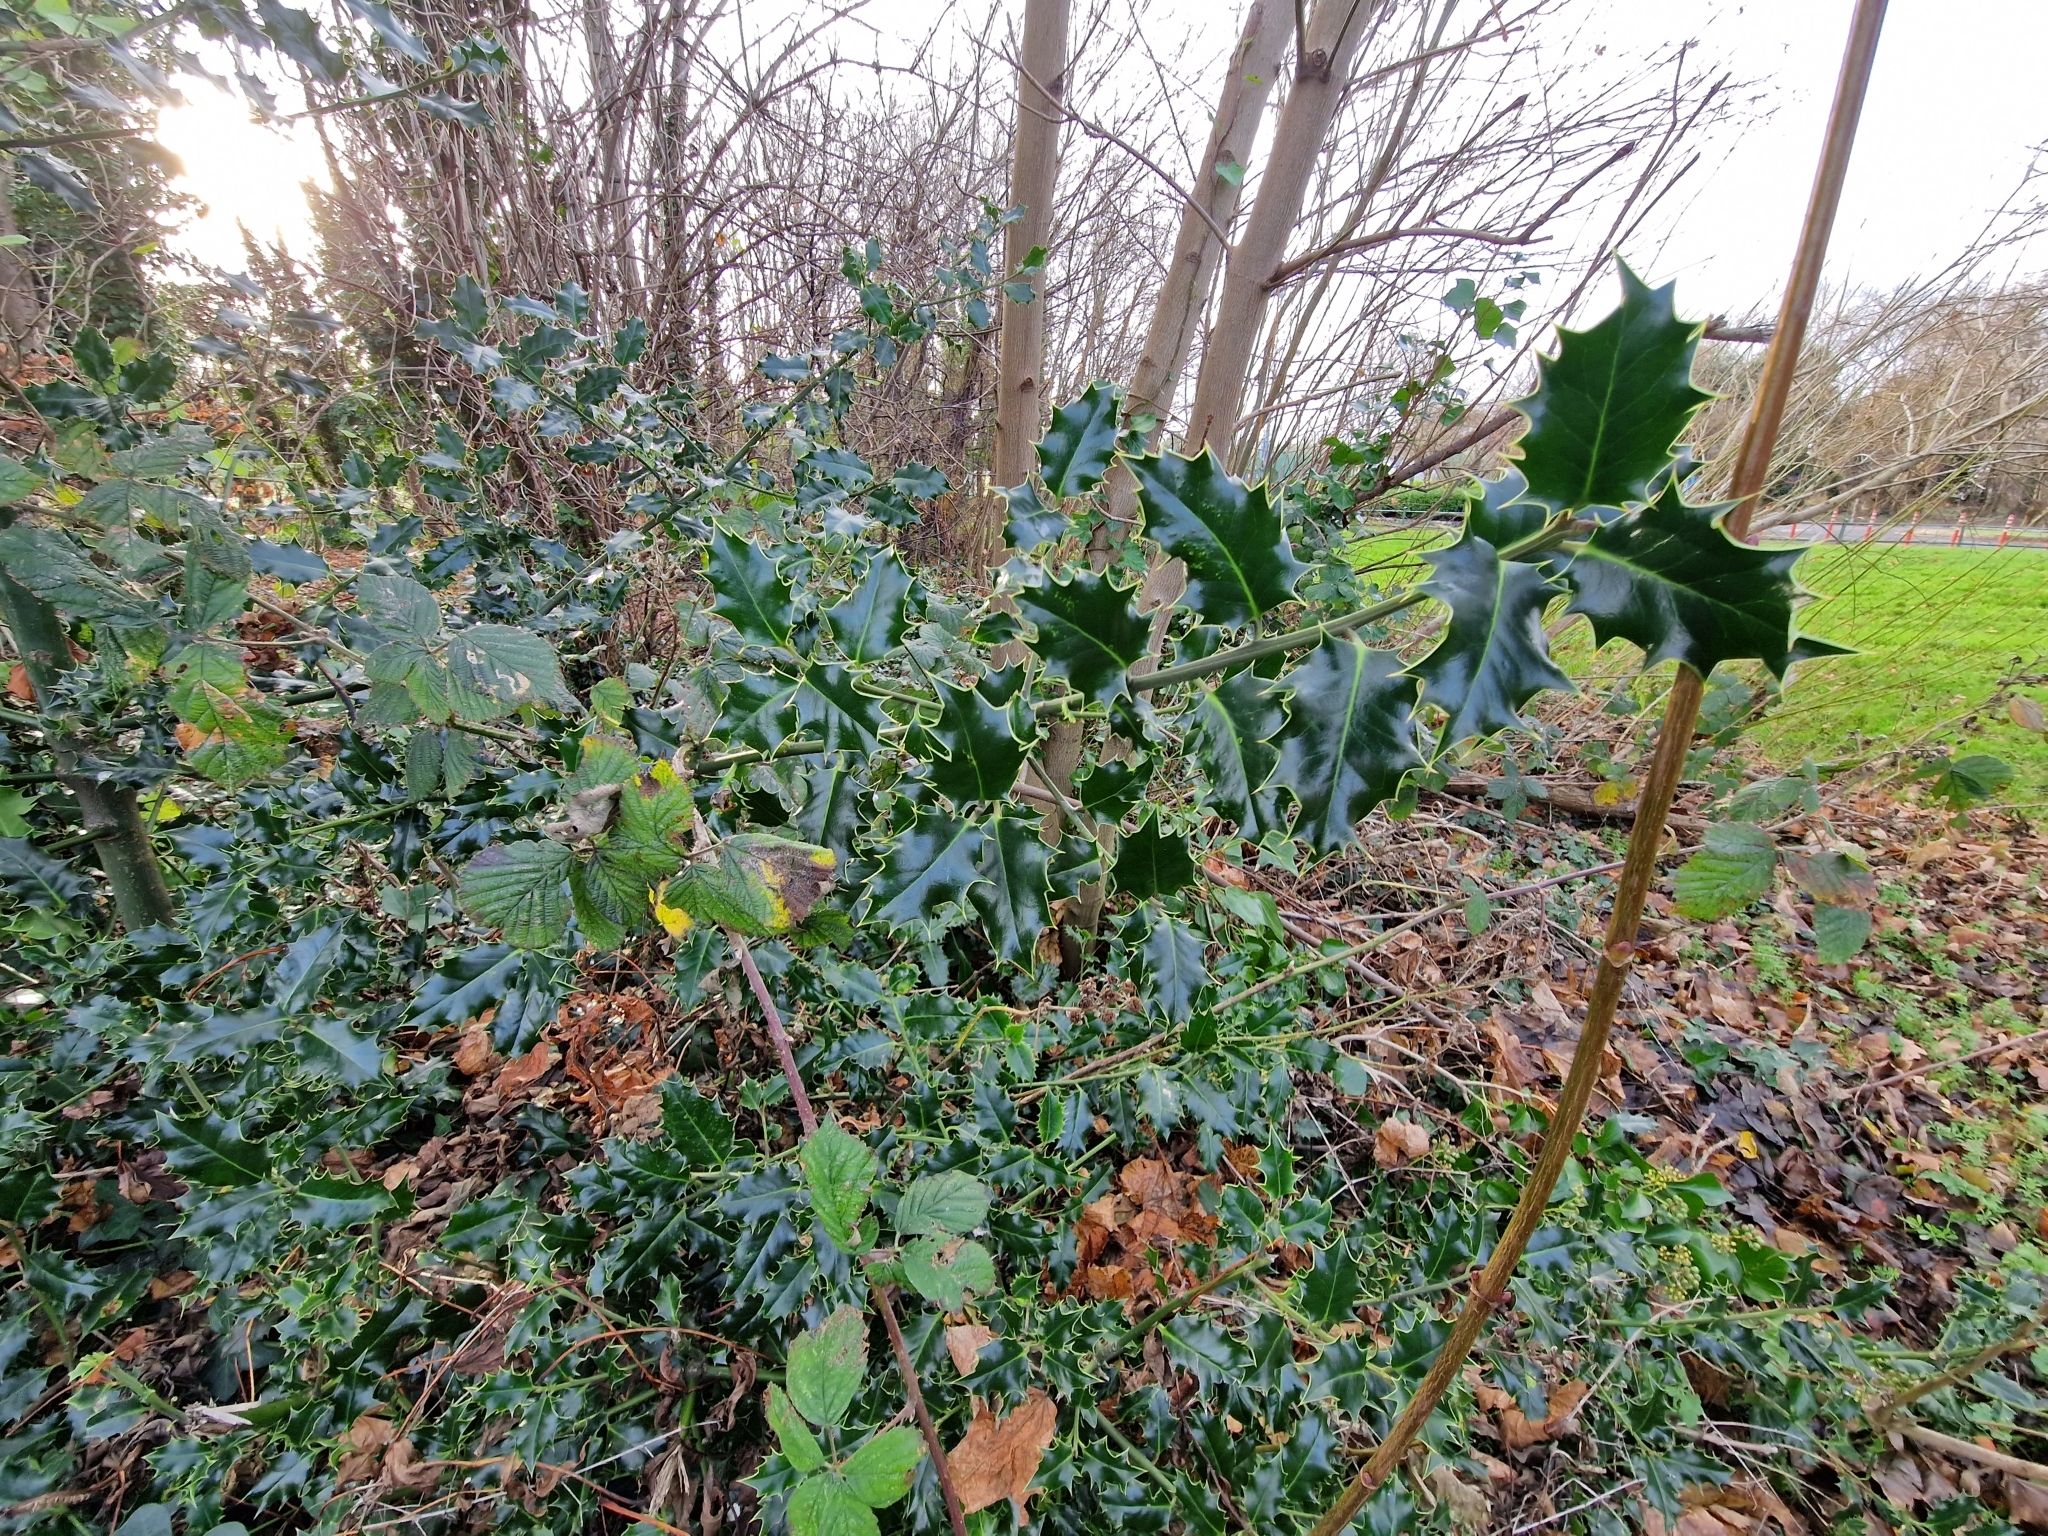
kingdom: Plantae
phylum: Tracheophyta
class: Magnoliopsida
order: Aquifoliales
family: Aquifoliaceae
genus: Ilex
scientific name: Ilex aquifolium
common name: English holly
